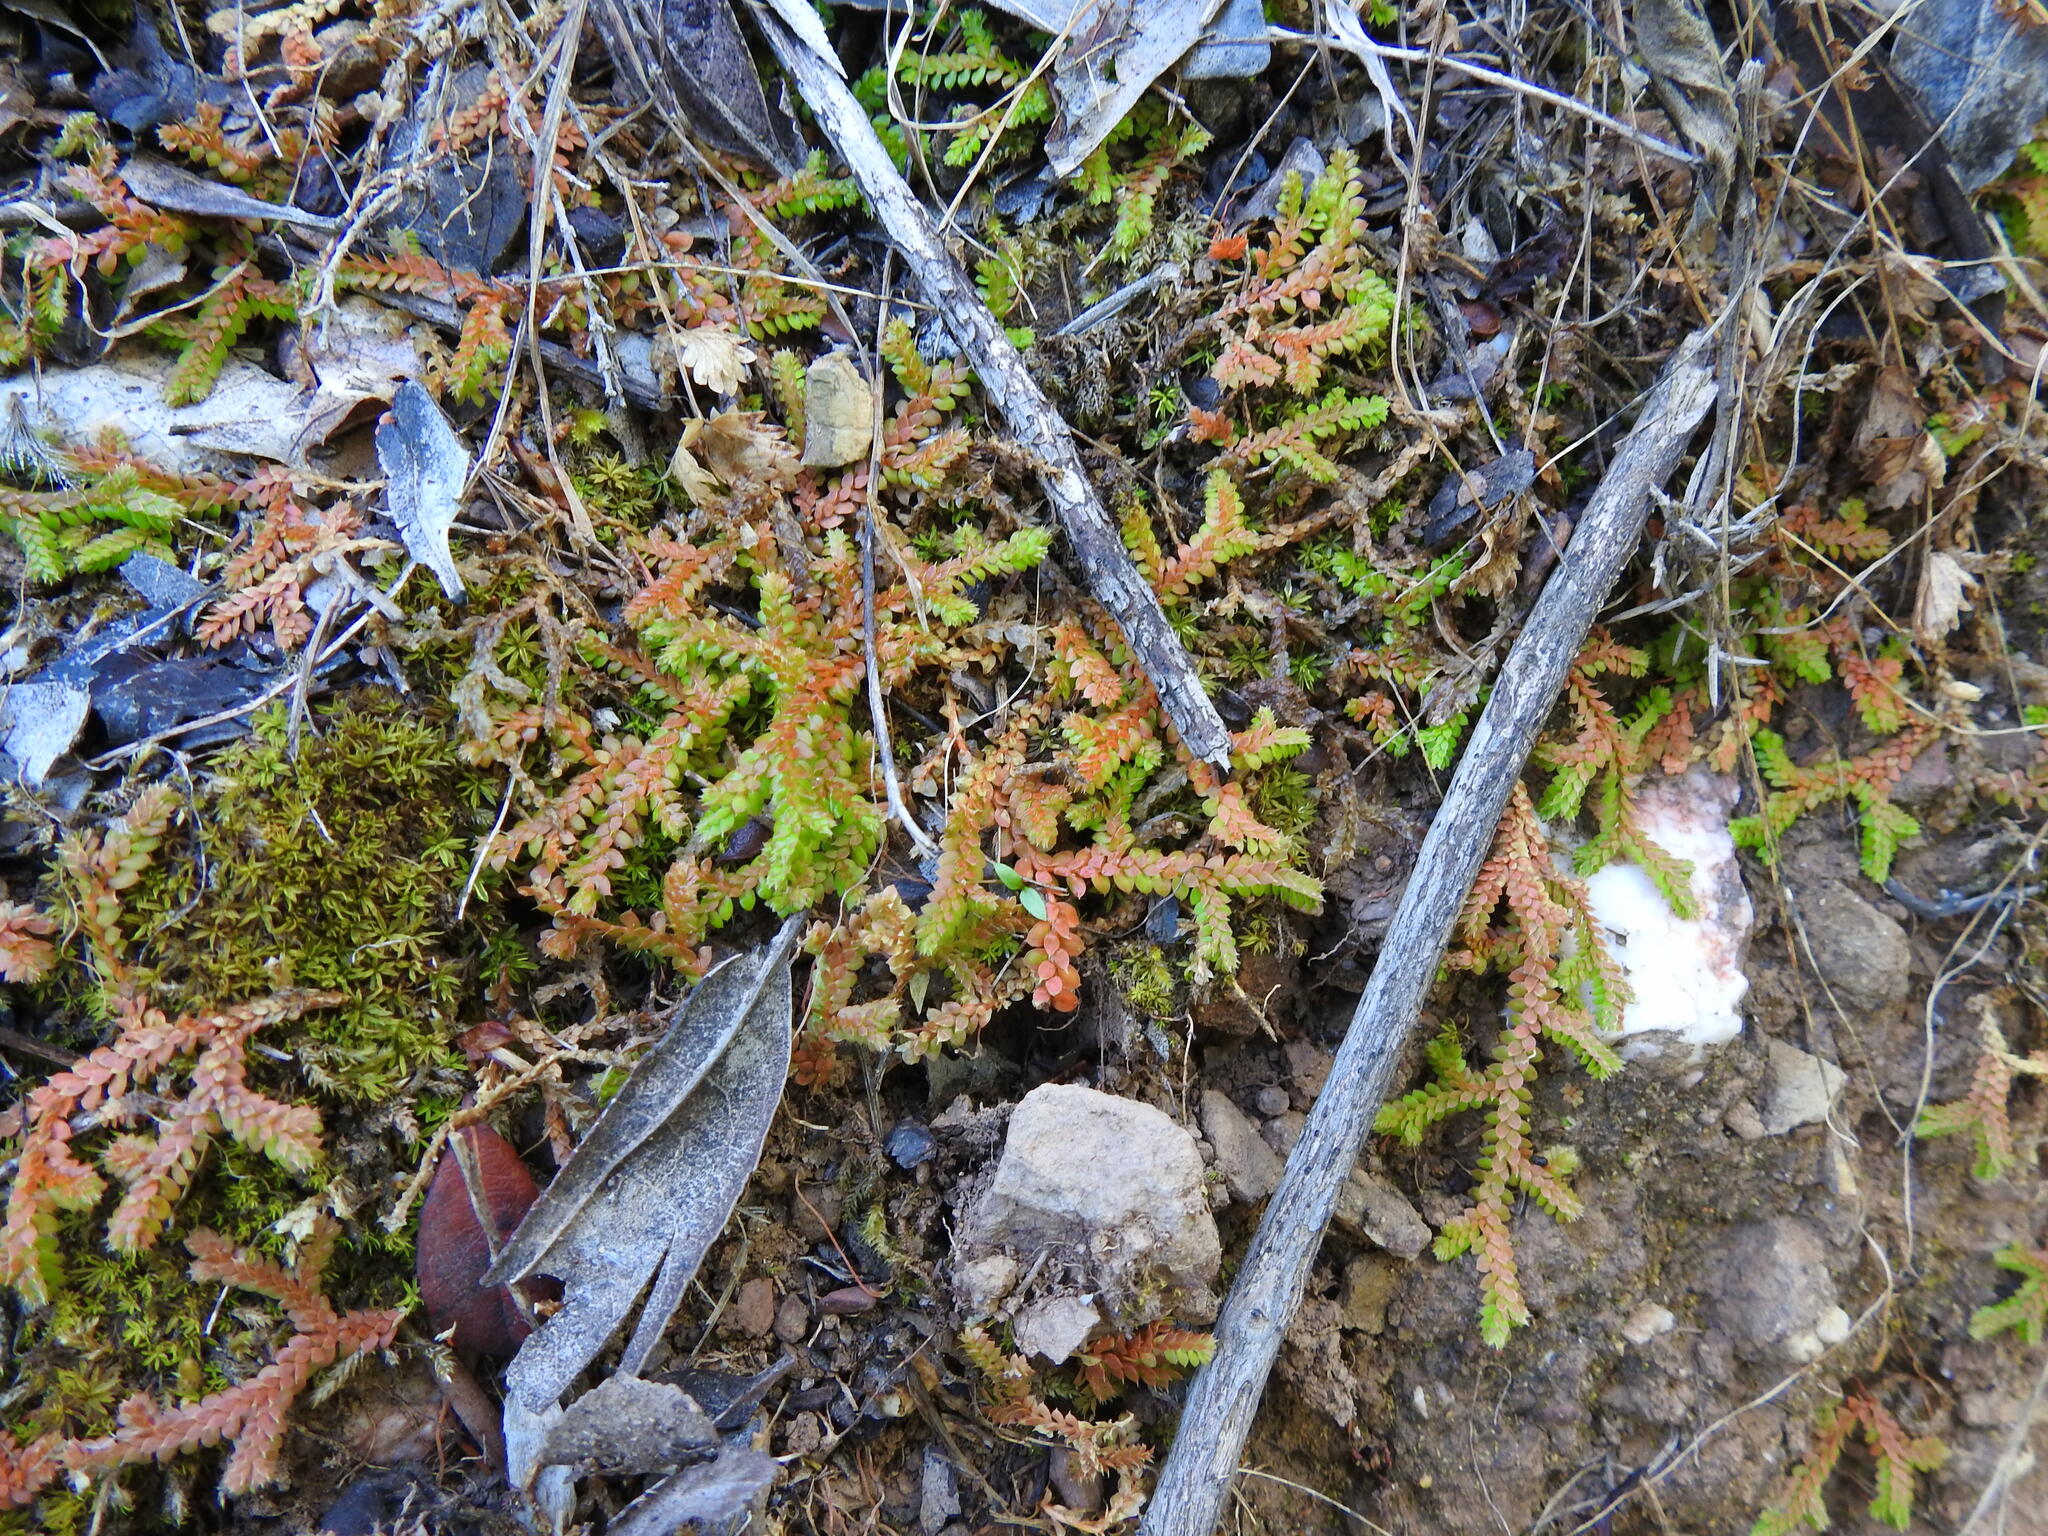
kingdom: Plantae
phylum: Tracheophyta
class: Lycopodiopsida
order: Selaginellales
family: Selaginellaceae
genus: Selaginella
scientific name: Selaginella denticulata
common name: Toothed-leaved clubmoss
